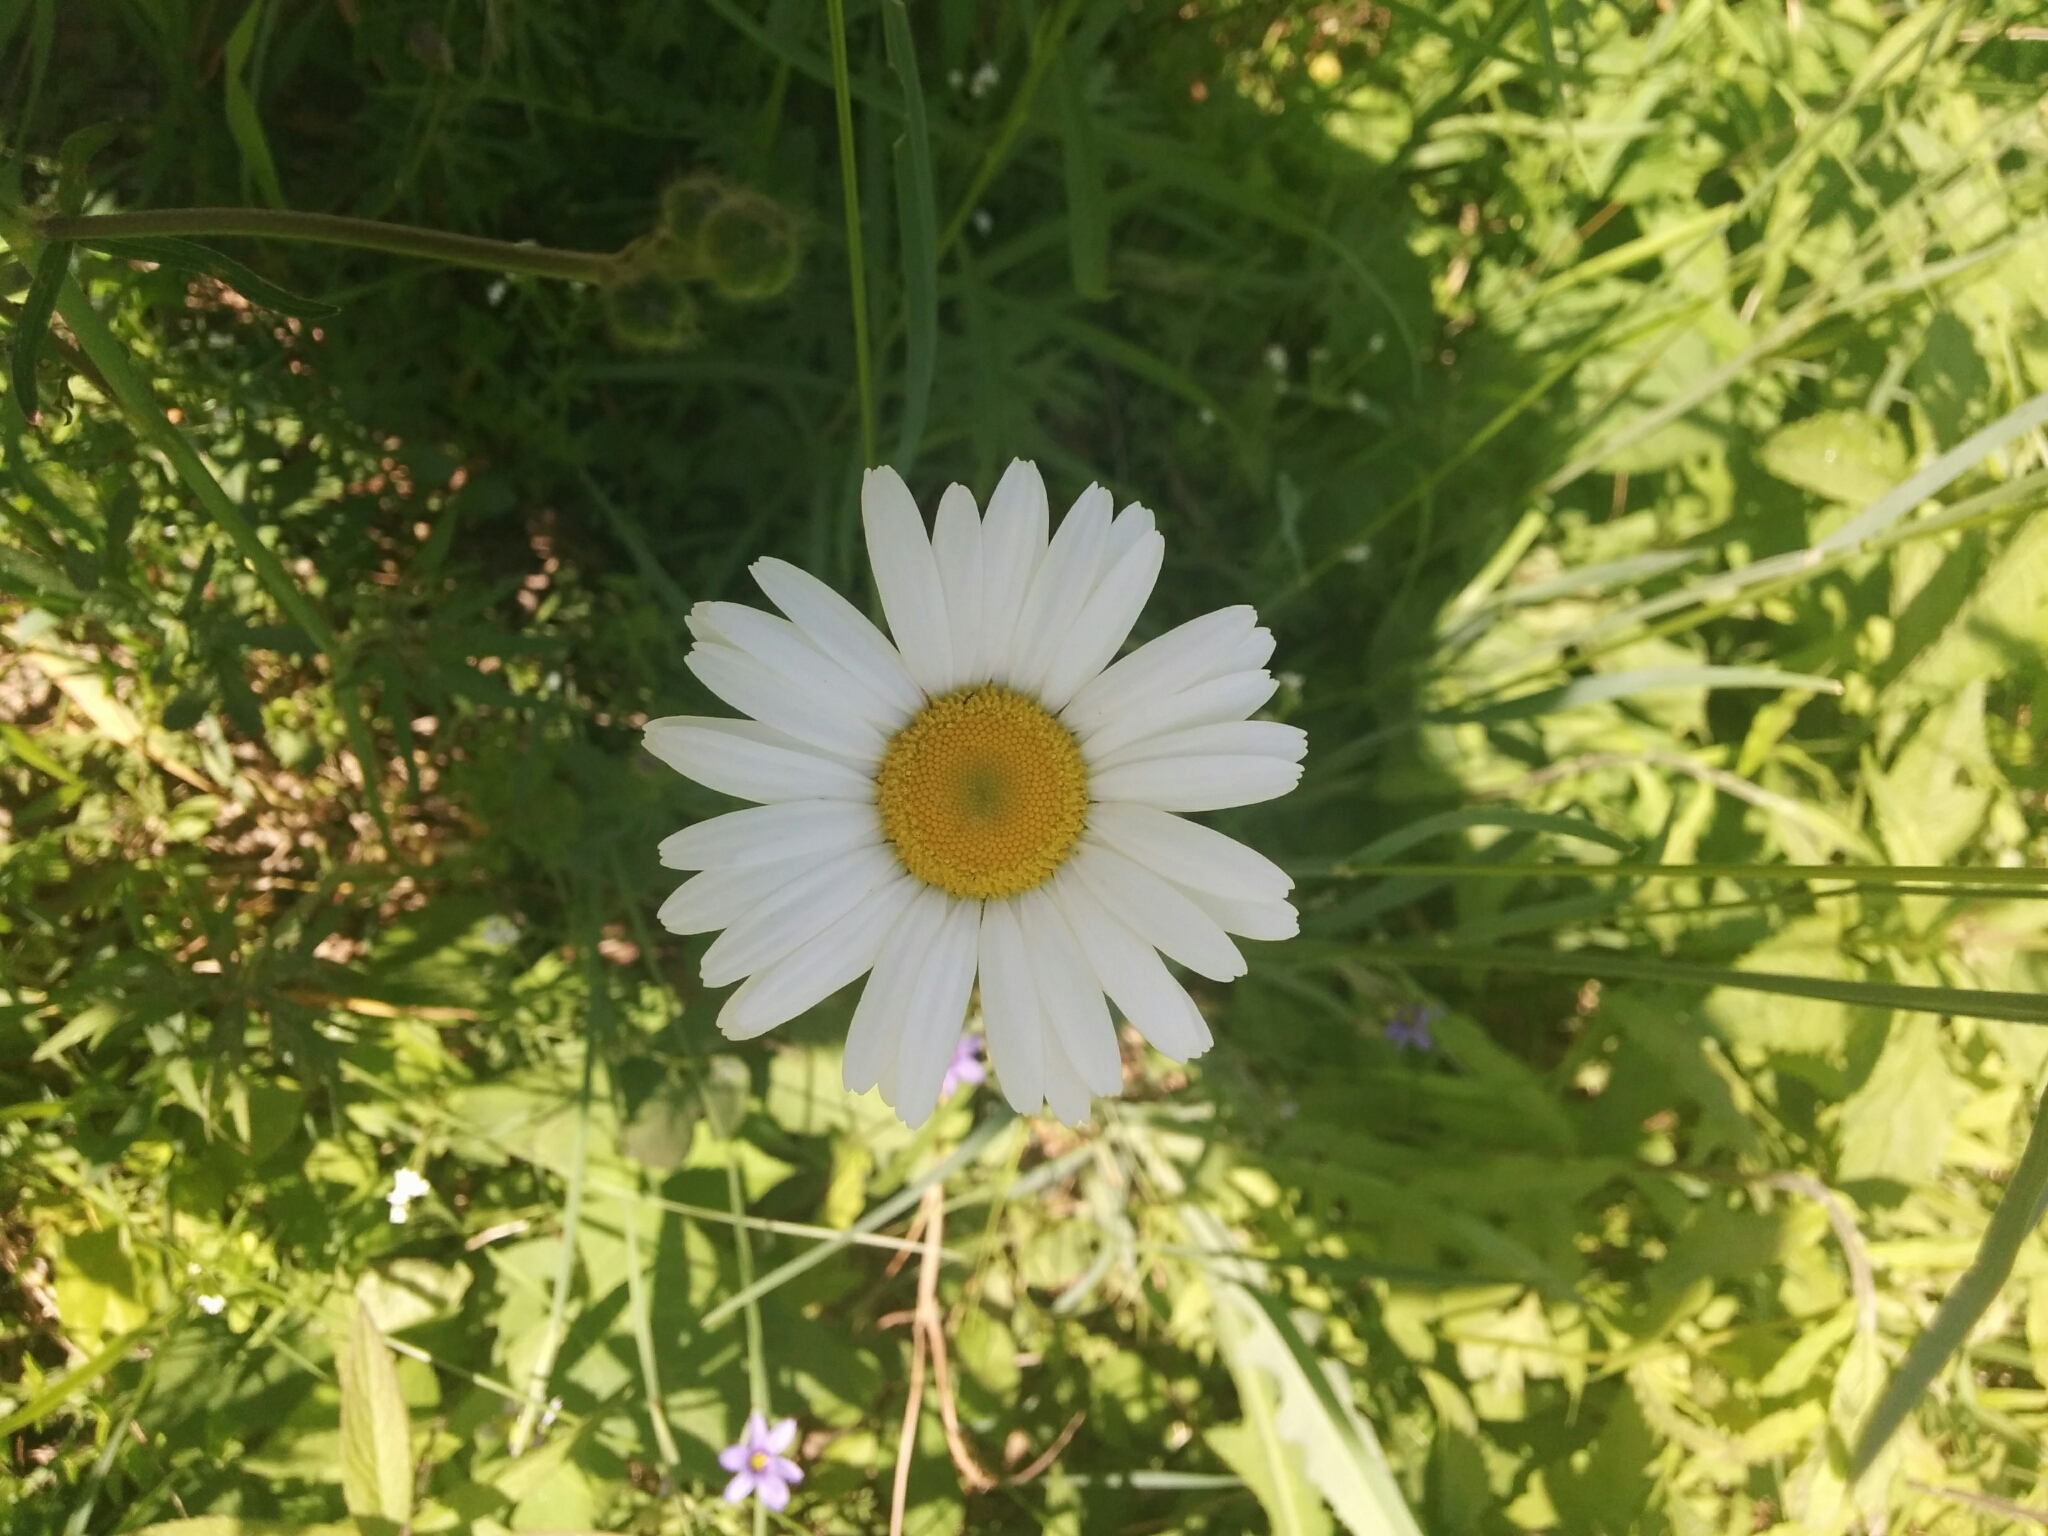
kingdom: Plantae
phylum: Tracheophyta
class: Magnoliopsida
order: Asterales
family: Asteraceae
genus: Leucanthemum
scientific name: Leucanthemum vulgare
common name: Oxeye daisy
